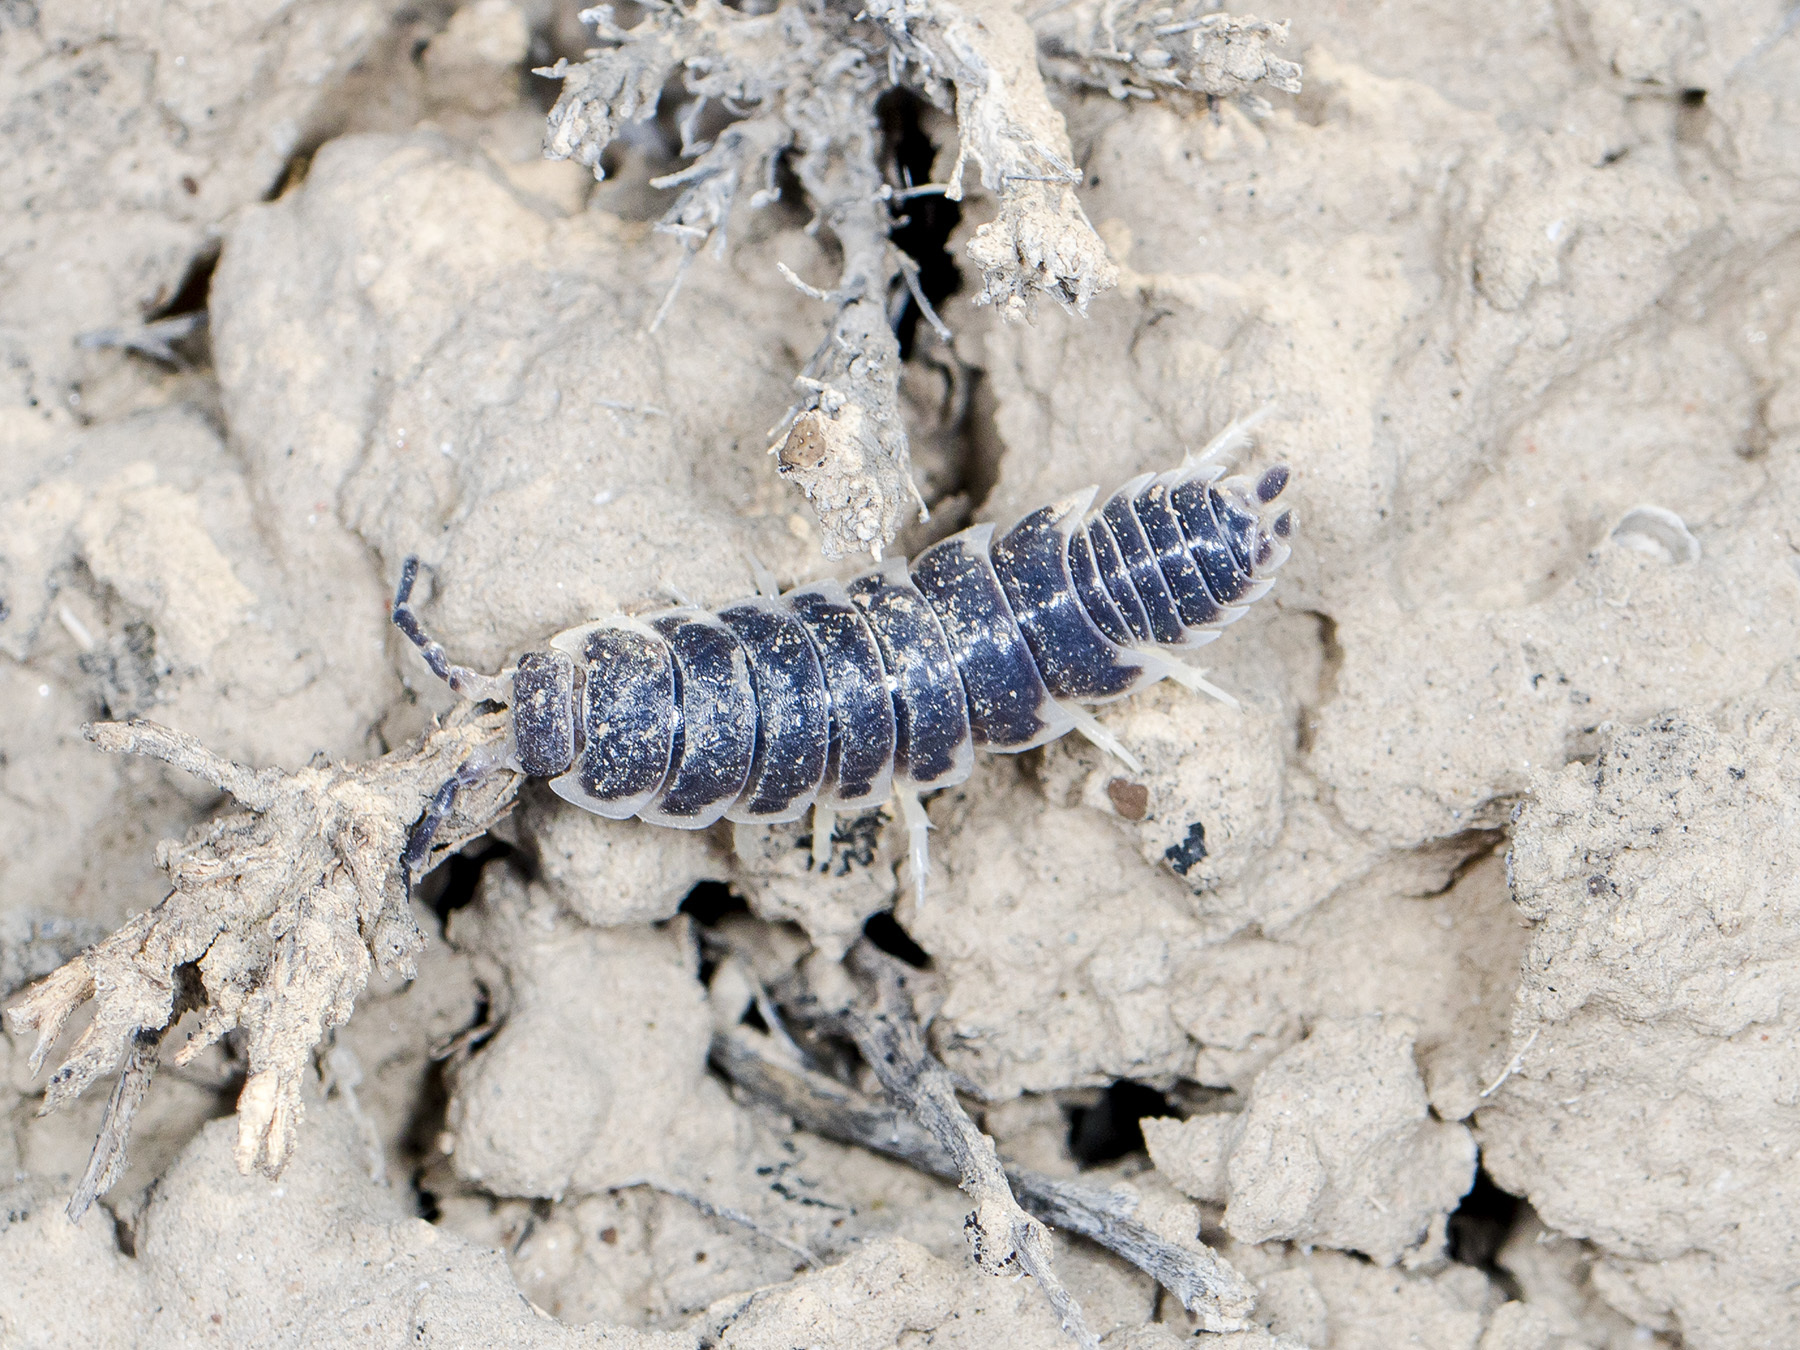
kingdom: Animalia
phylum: Arthropoda
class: Malacostraca
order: Isopoda
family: Agnaridae
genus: Hemilepistus
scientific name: Hemilepistus
